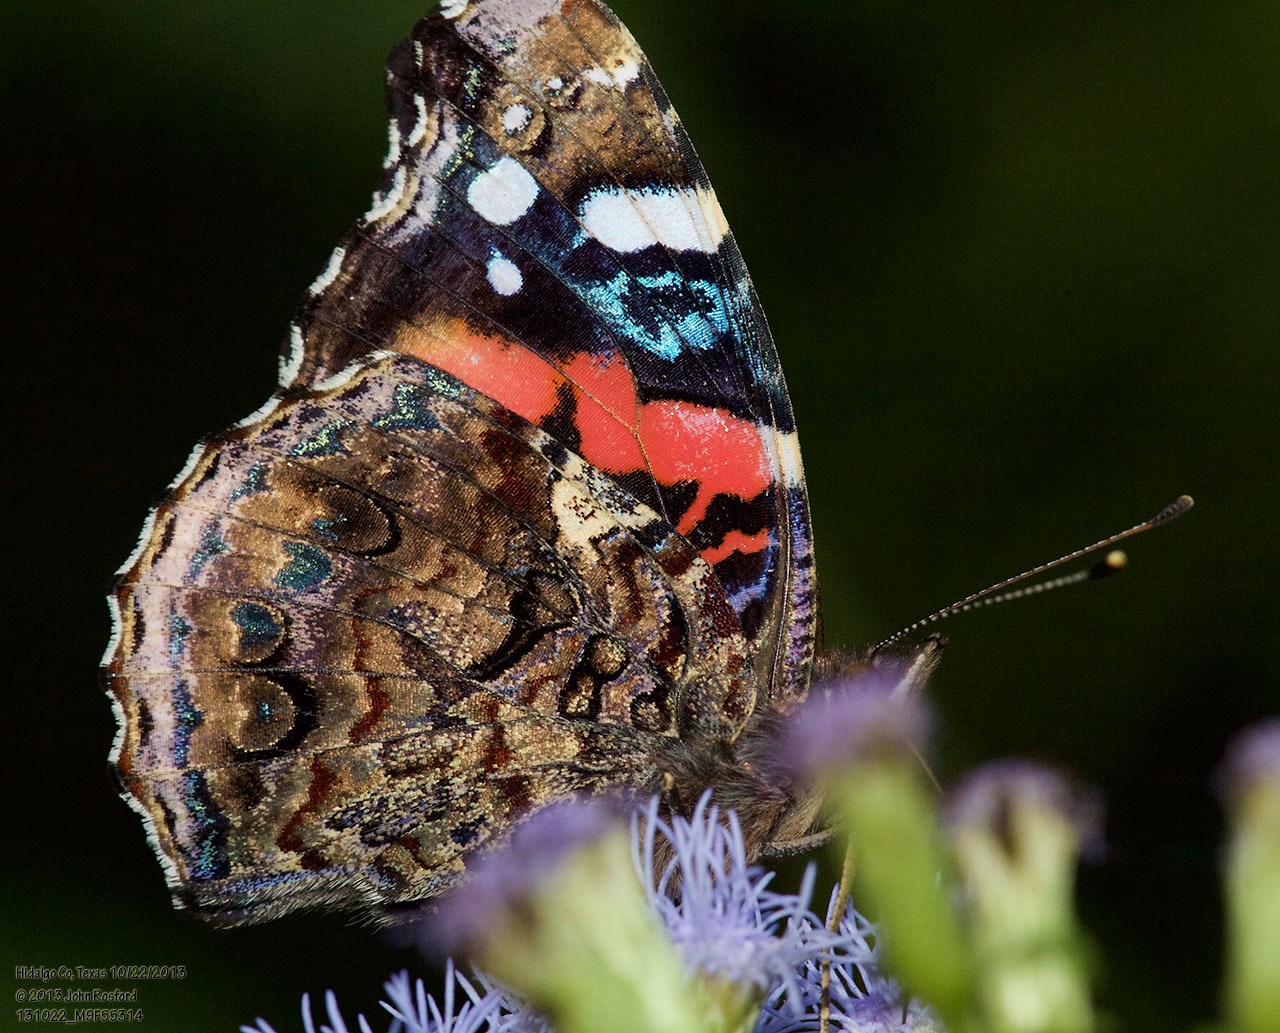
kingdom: Animalia
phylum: Arthropoda
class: Insecta
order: Lepidoptera
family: Nymphalidae
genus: Vanessa
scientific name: Vanessa atalanta
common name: Red admiral
